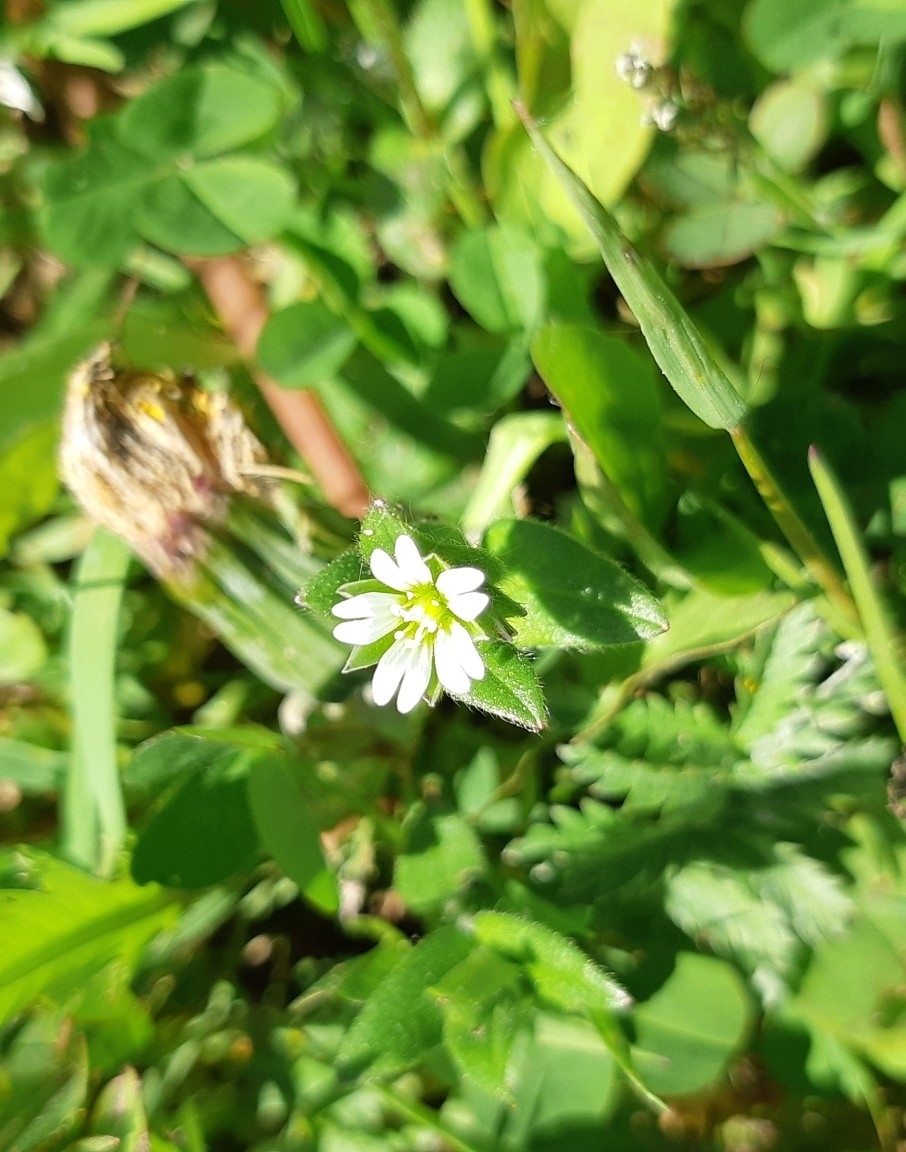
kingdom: Plantae
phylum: Tracheophyta
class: Magnoliopsida
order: Caryophyllales
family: Caryophyllaceae
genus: Cerastium
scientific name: Cerastium holosteoides
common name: Big chickweed
